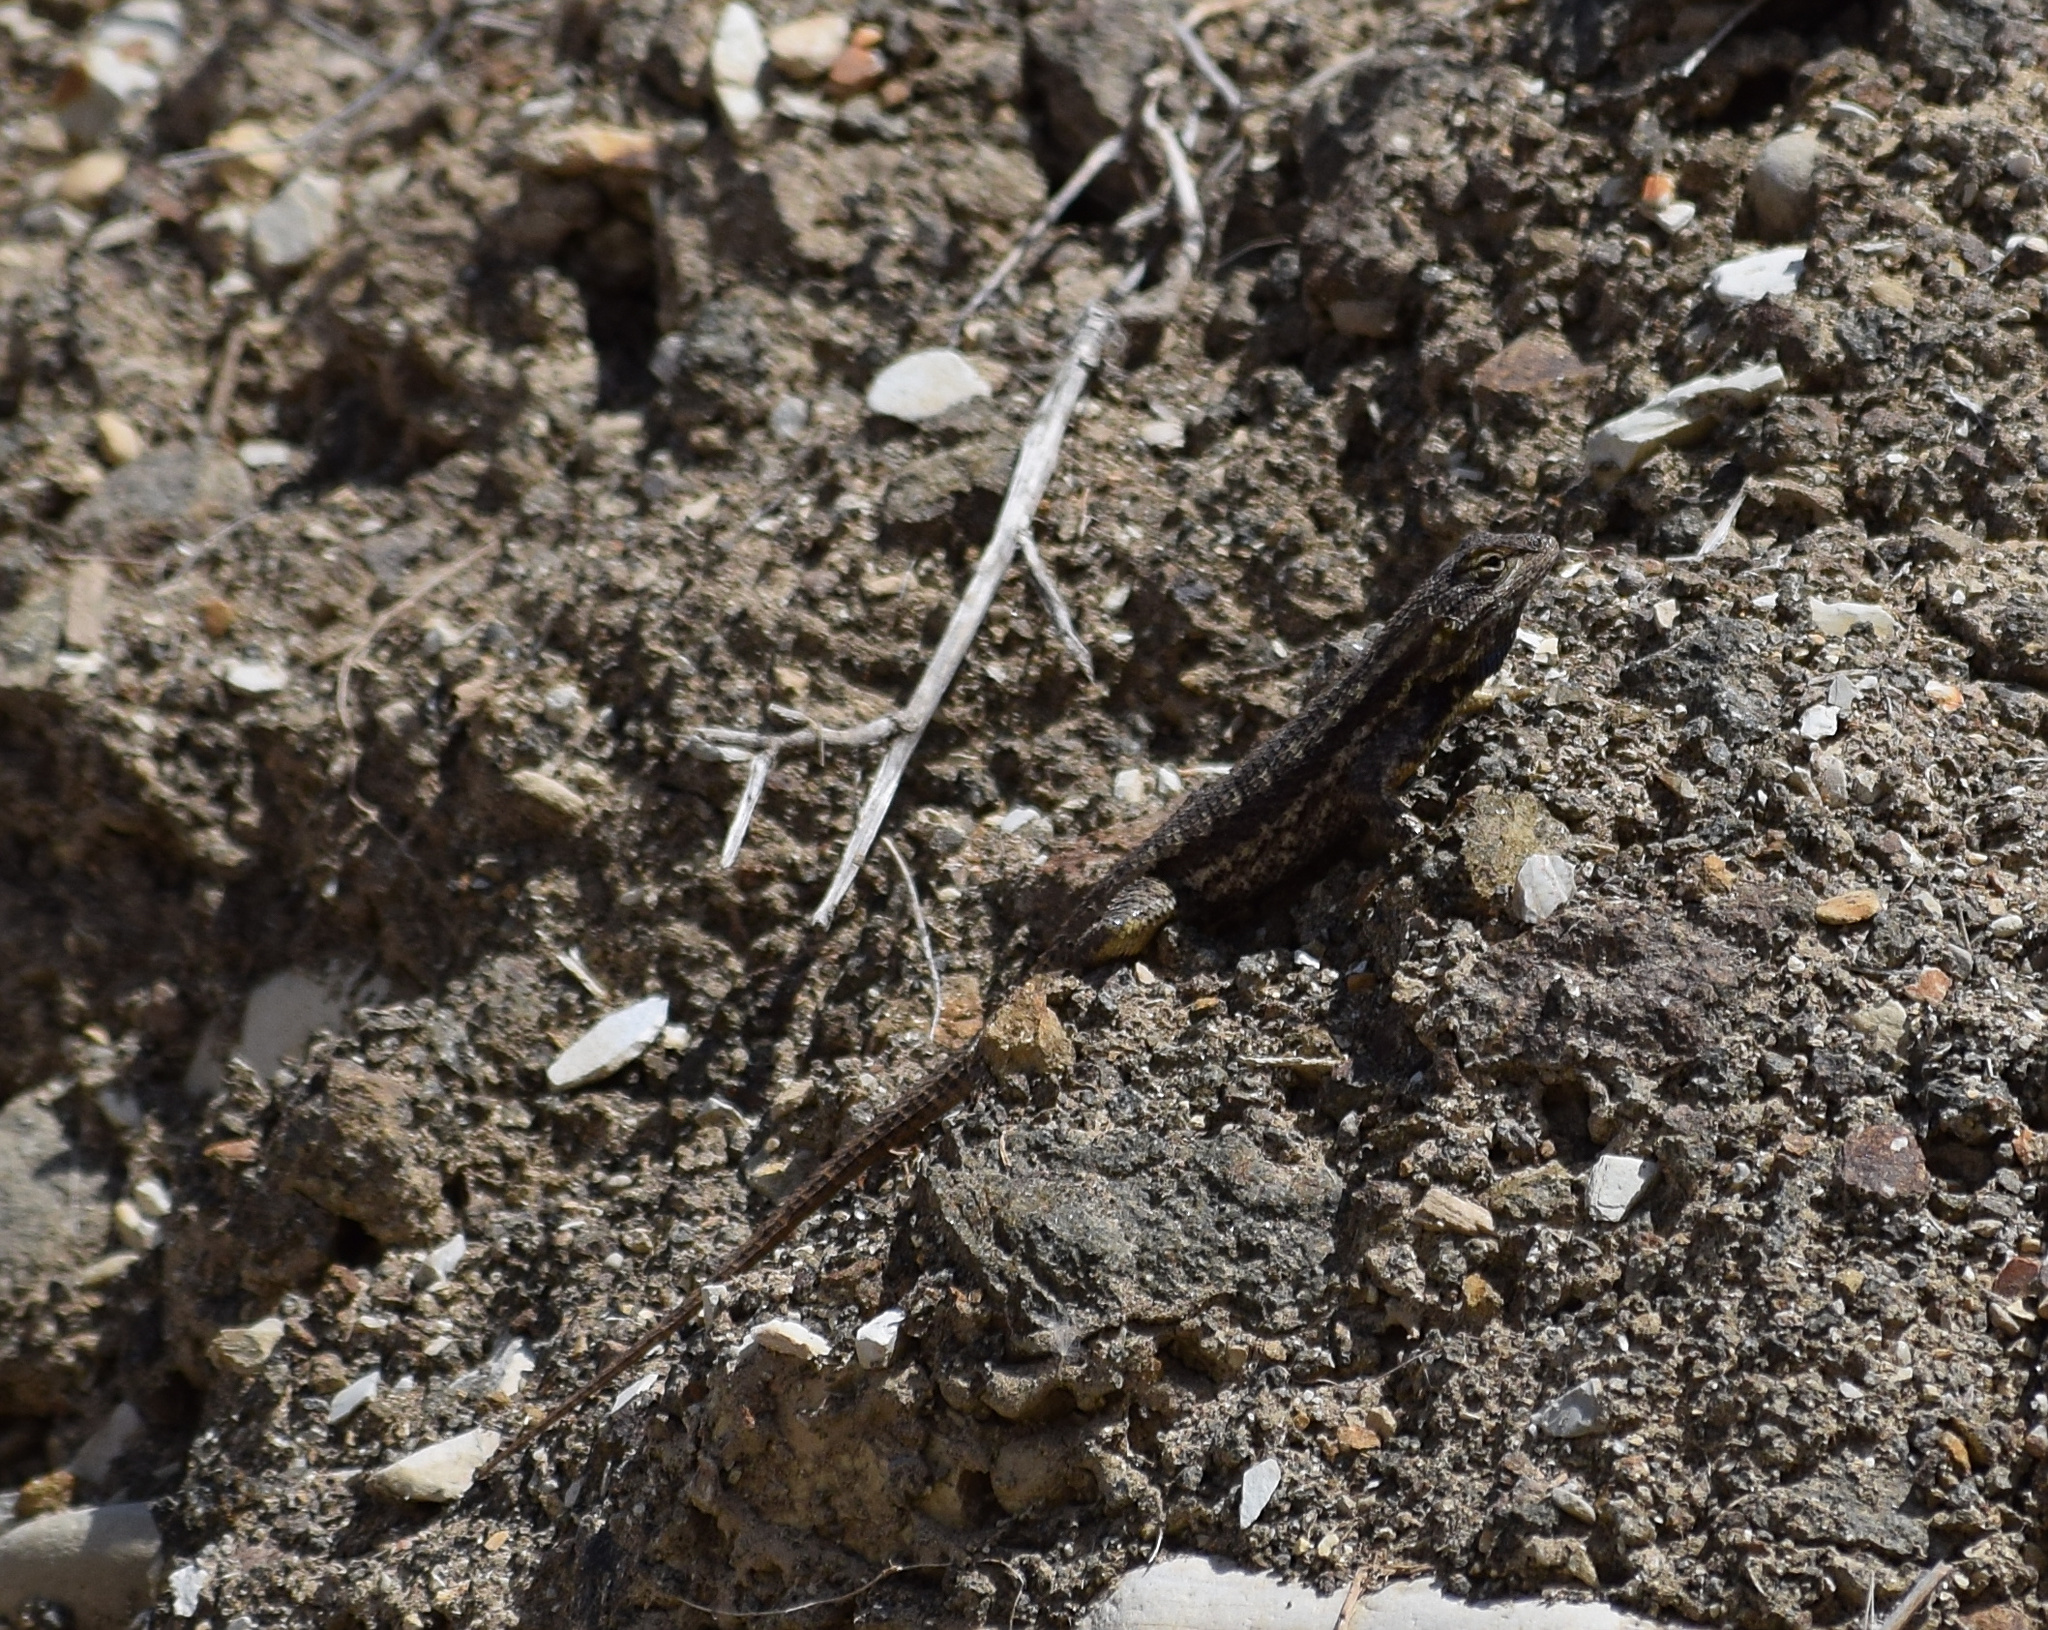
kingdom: Animalia
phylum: Chordata
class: Squamata
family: Phrynosomatidae
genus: Sceloporus
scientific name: Sceloporus occidentalis
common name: Western fence lizard
